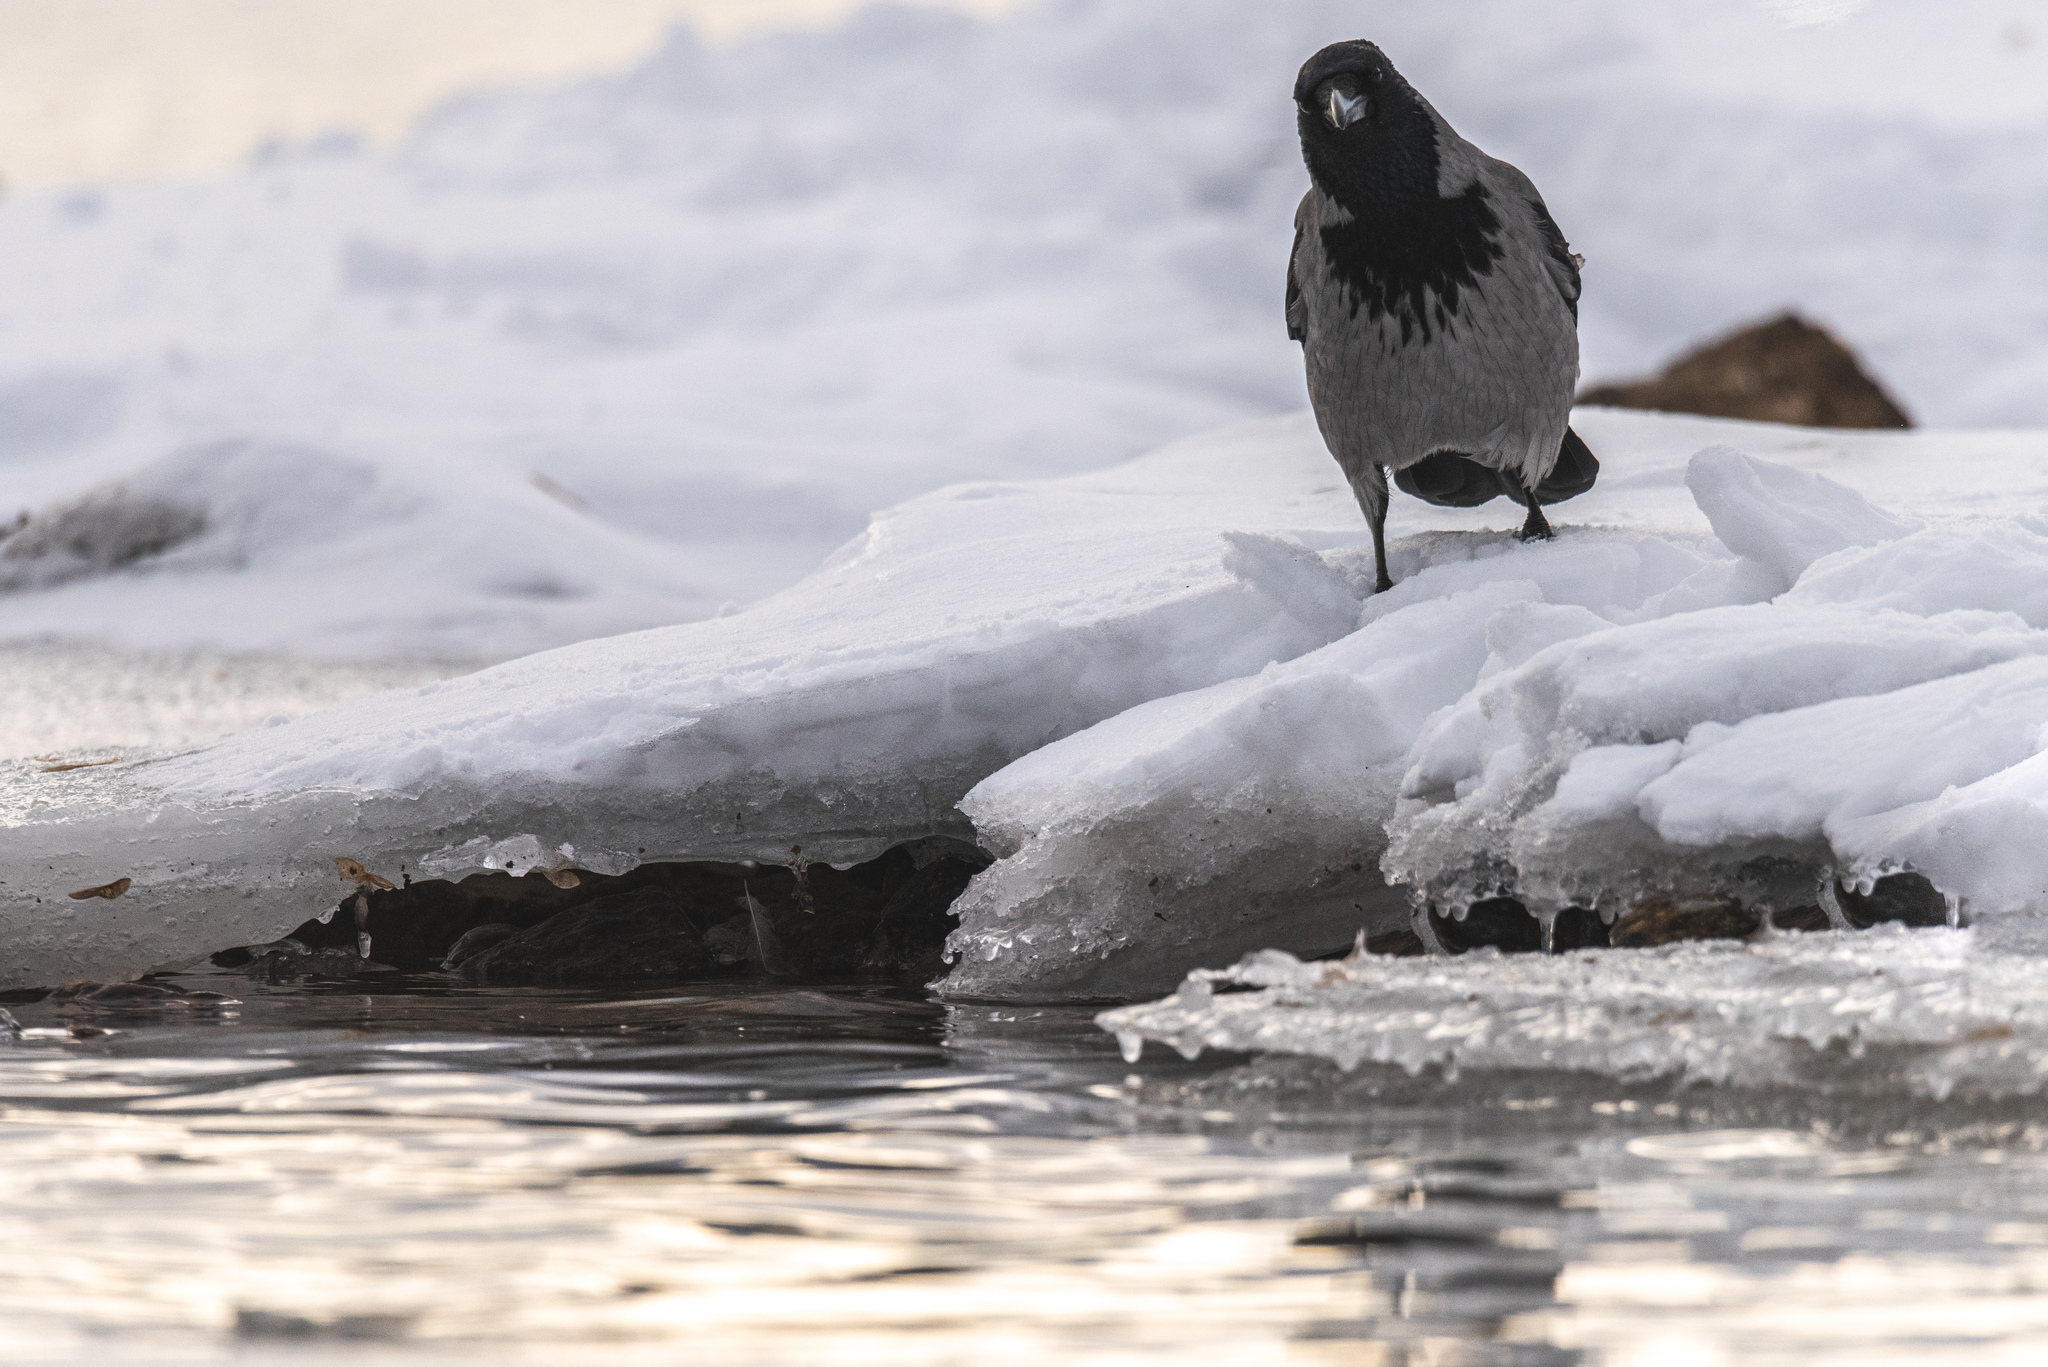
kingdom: Animalia
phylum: Chordata
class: Aves
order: Passeriformes
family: Corvidae
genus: Corvus
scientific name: Corvus cornix
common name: Hooded crow
